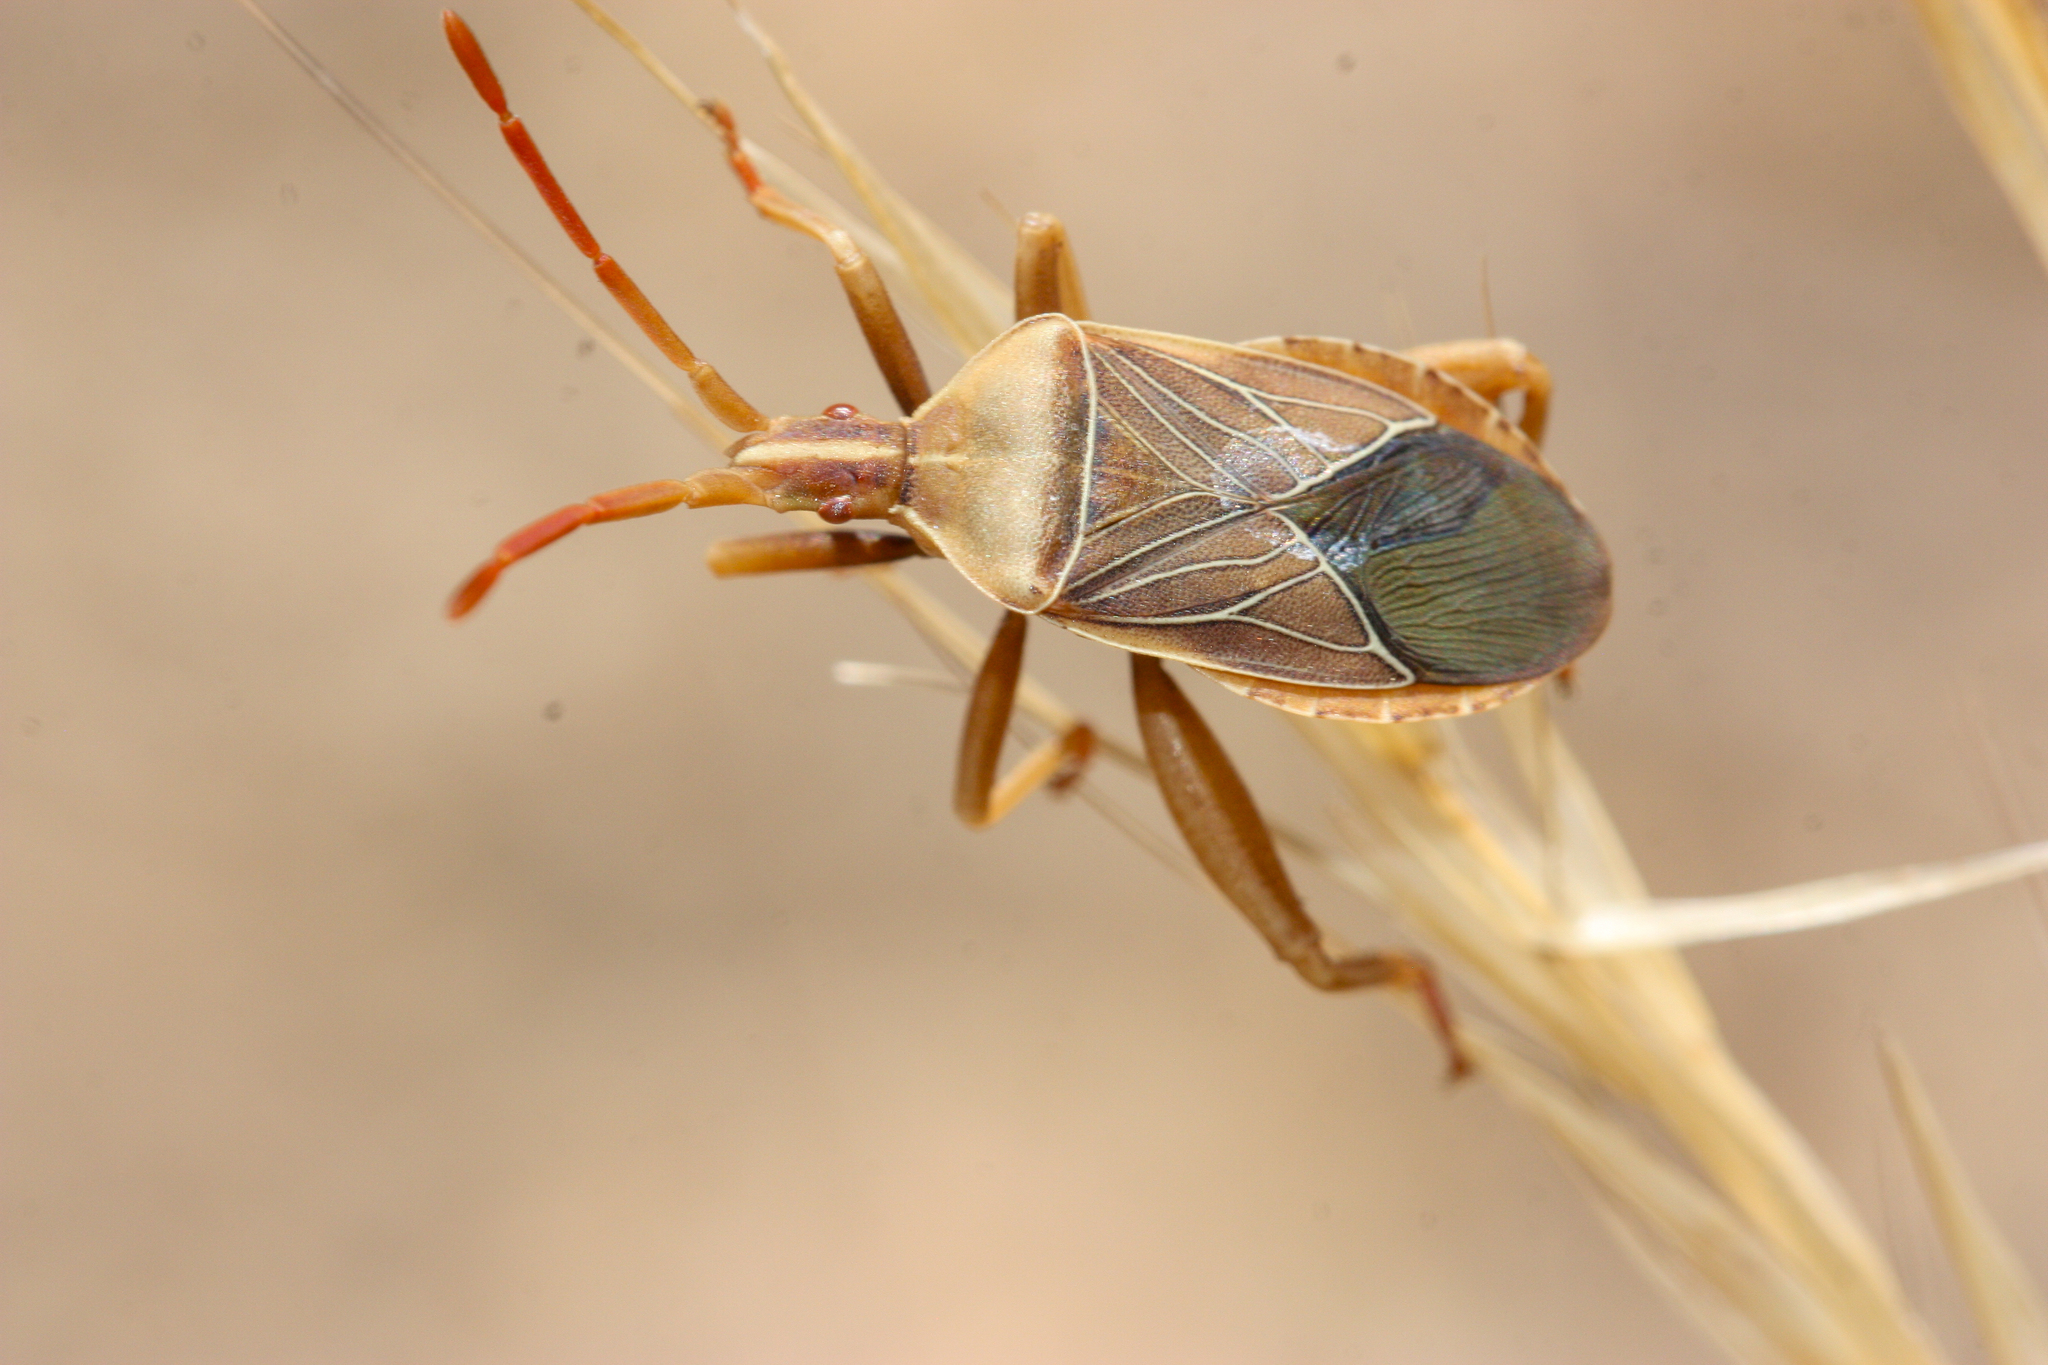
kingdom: Animalia
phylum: Arthropoda
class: Insecta
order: Hemiptera
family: Coreidae
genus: Chelinidea
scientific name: Chelinidea vittiger
